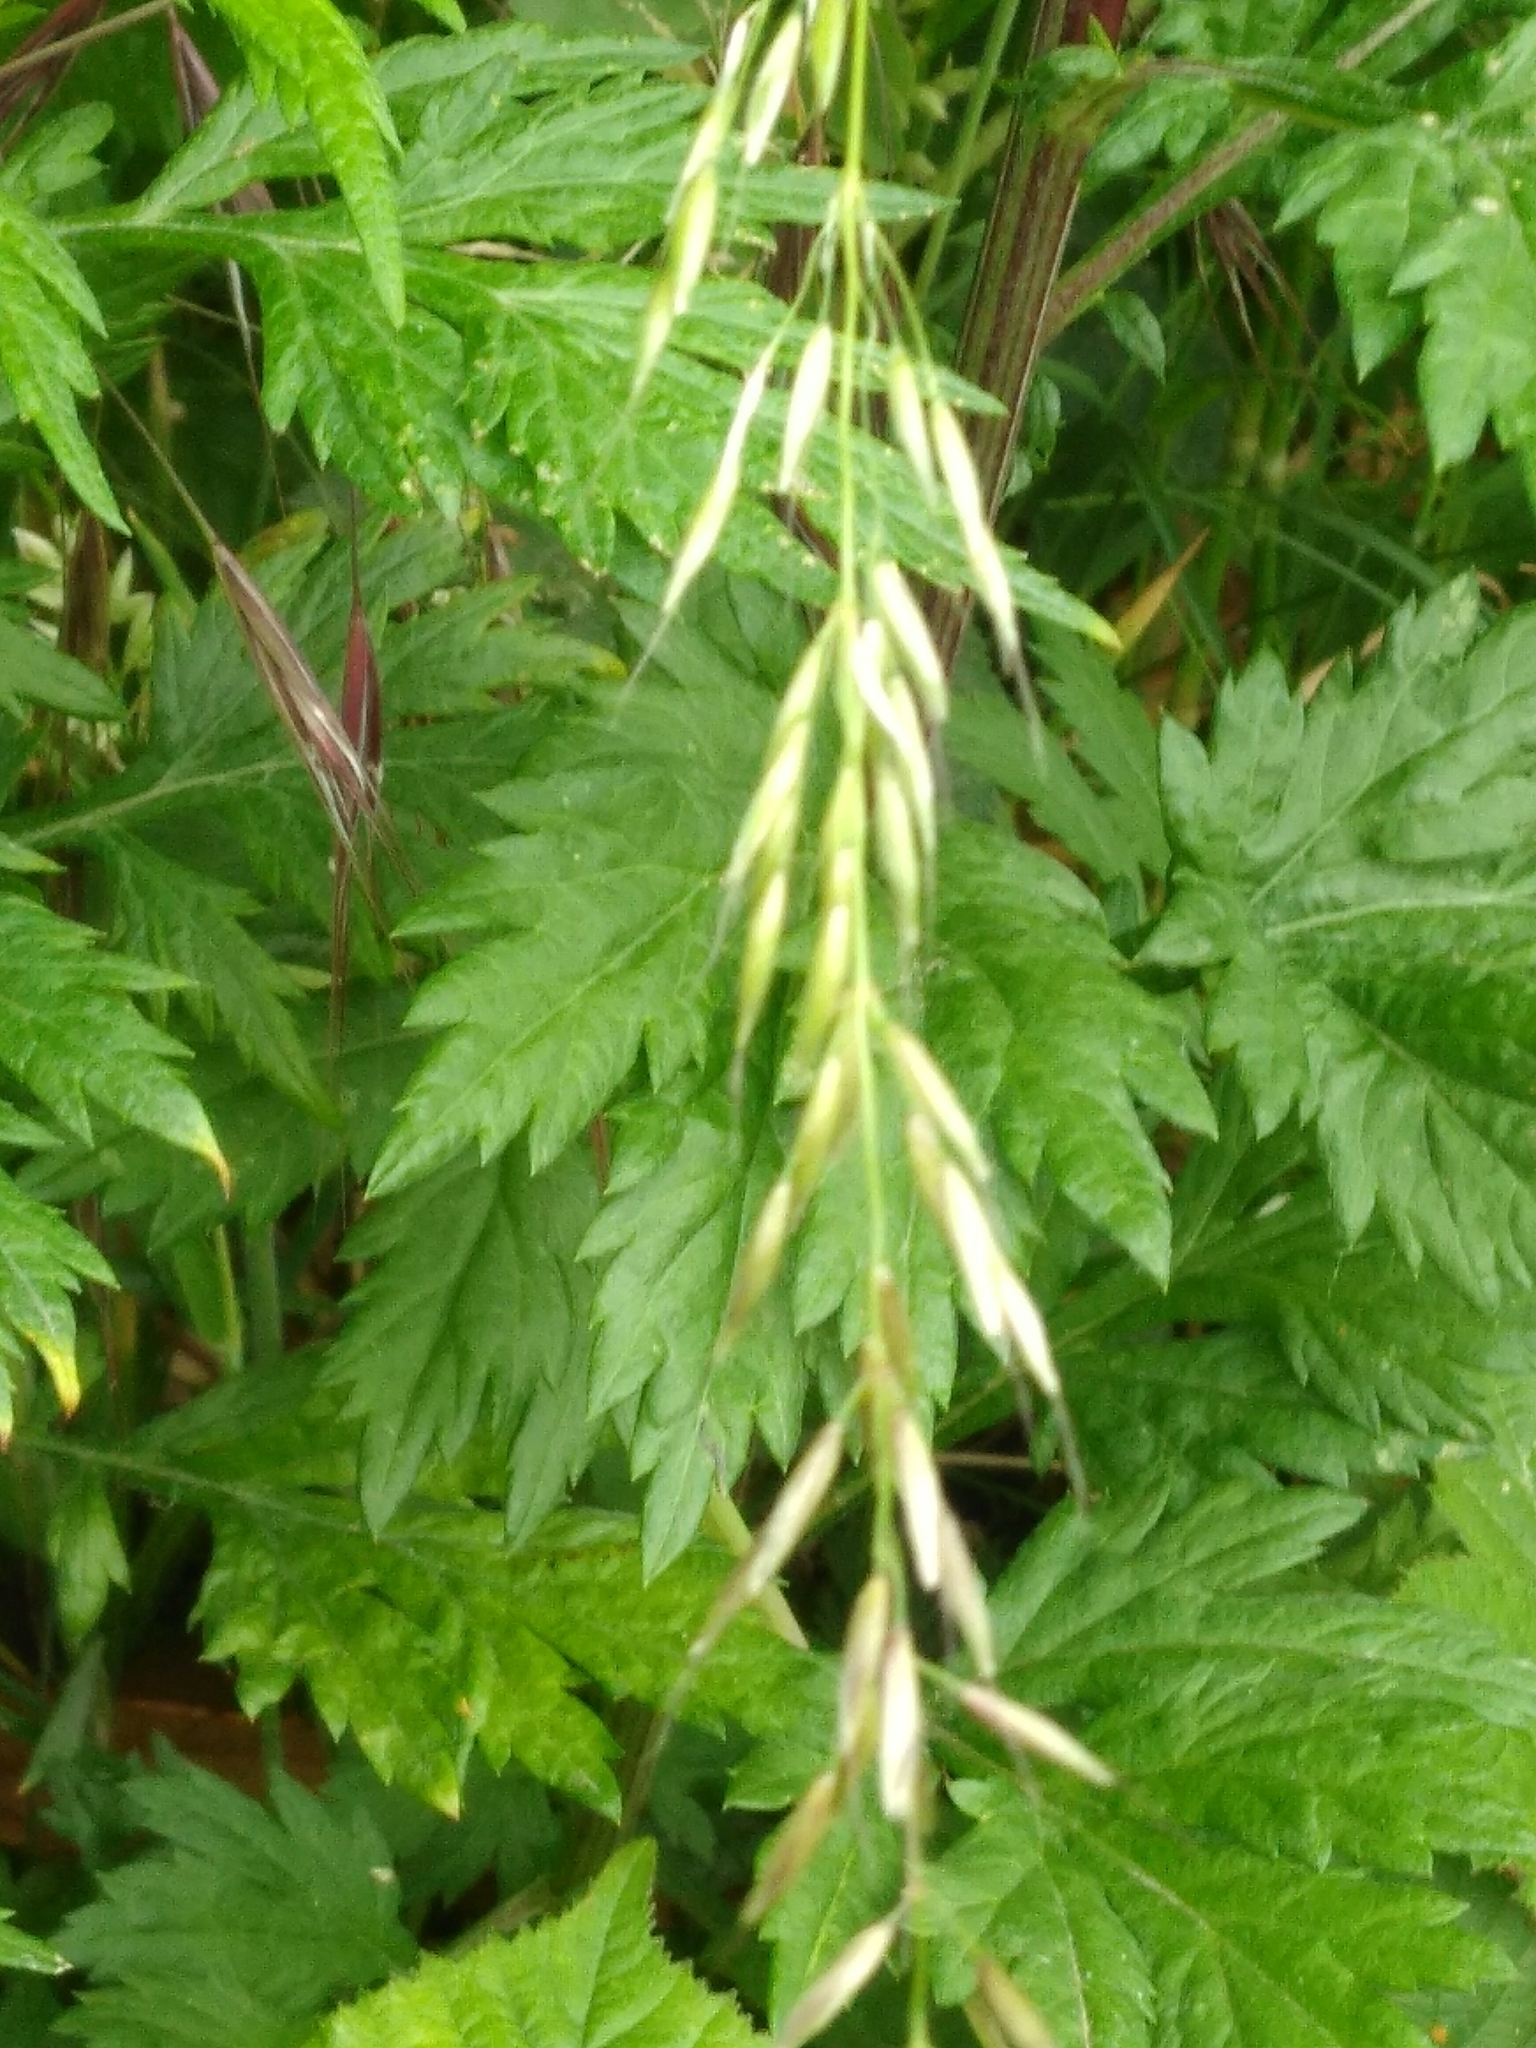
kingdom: Plantae
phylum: Tracheophyta
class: Liliopsida
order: Poales
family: Poaceae
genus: Arrhenatherum
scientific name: Arrhenatherum elatius
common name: Tall oatgrass
